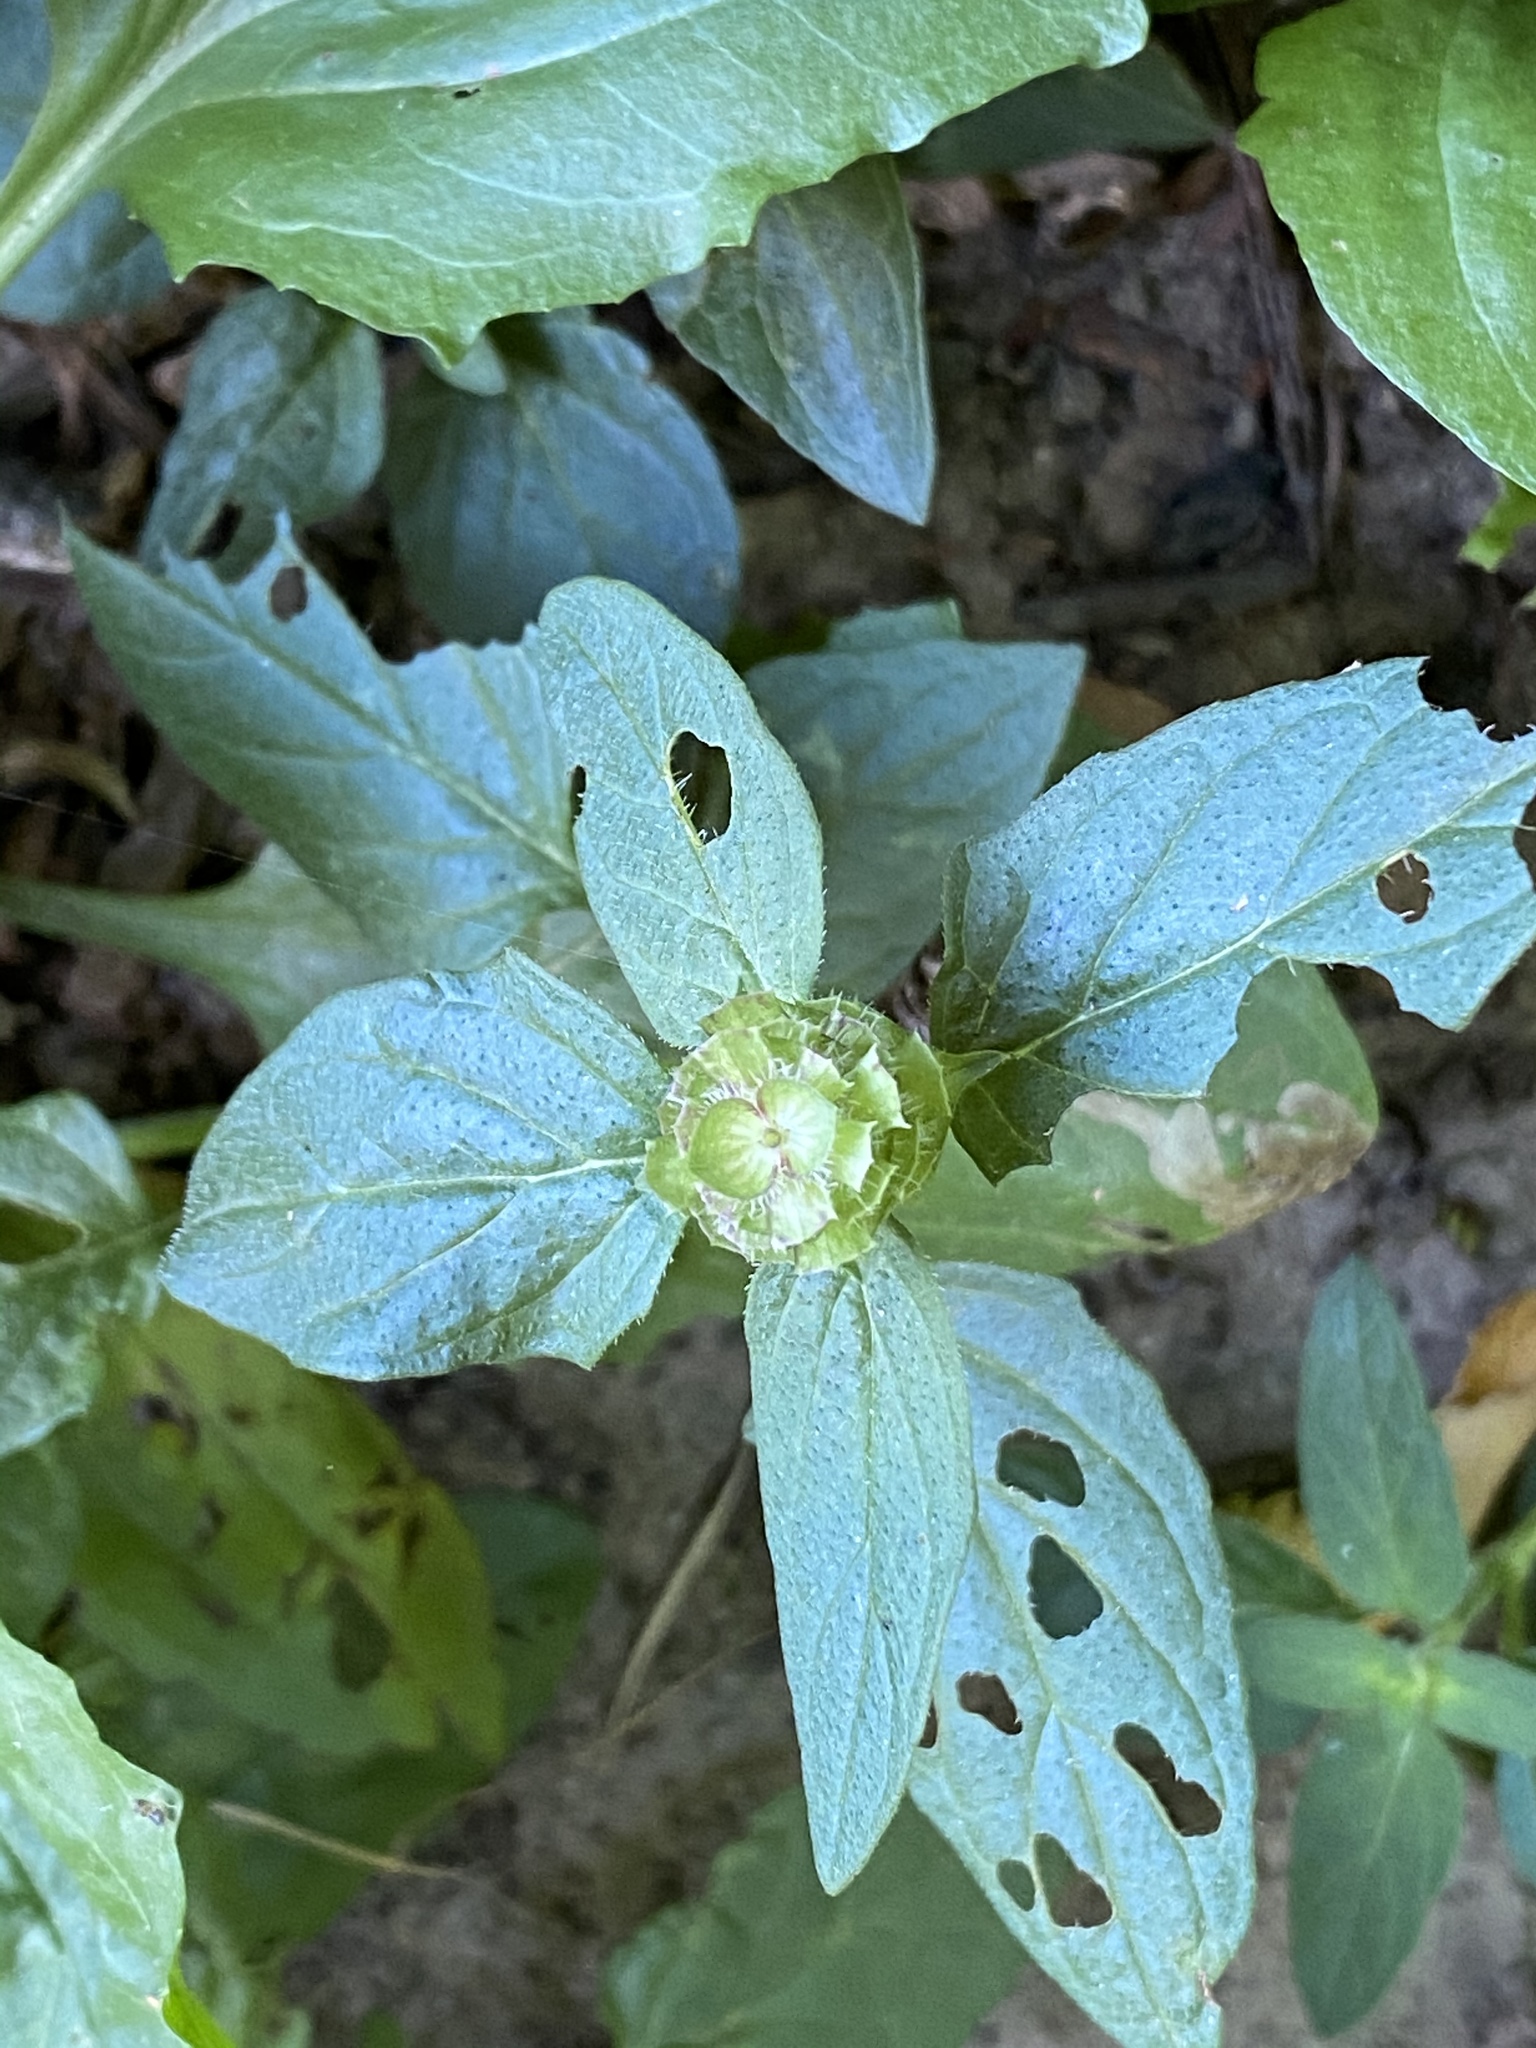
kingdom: Plantae
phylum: Tracheophyta
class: Magnoliopsida
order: Lamiales
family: Lamiaceae
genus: Prunella
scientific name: Prunella vulgaris
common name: Heal-all
